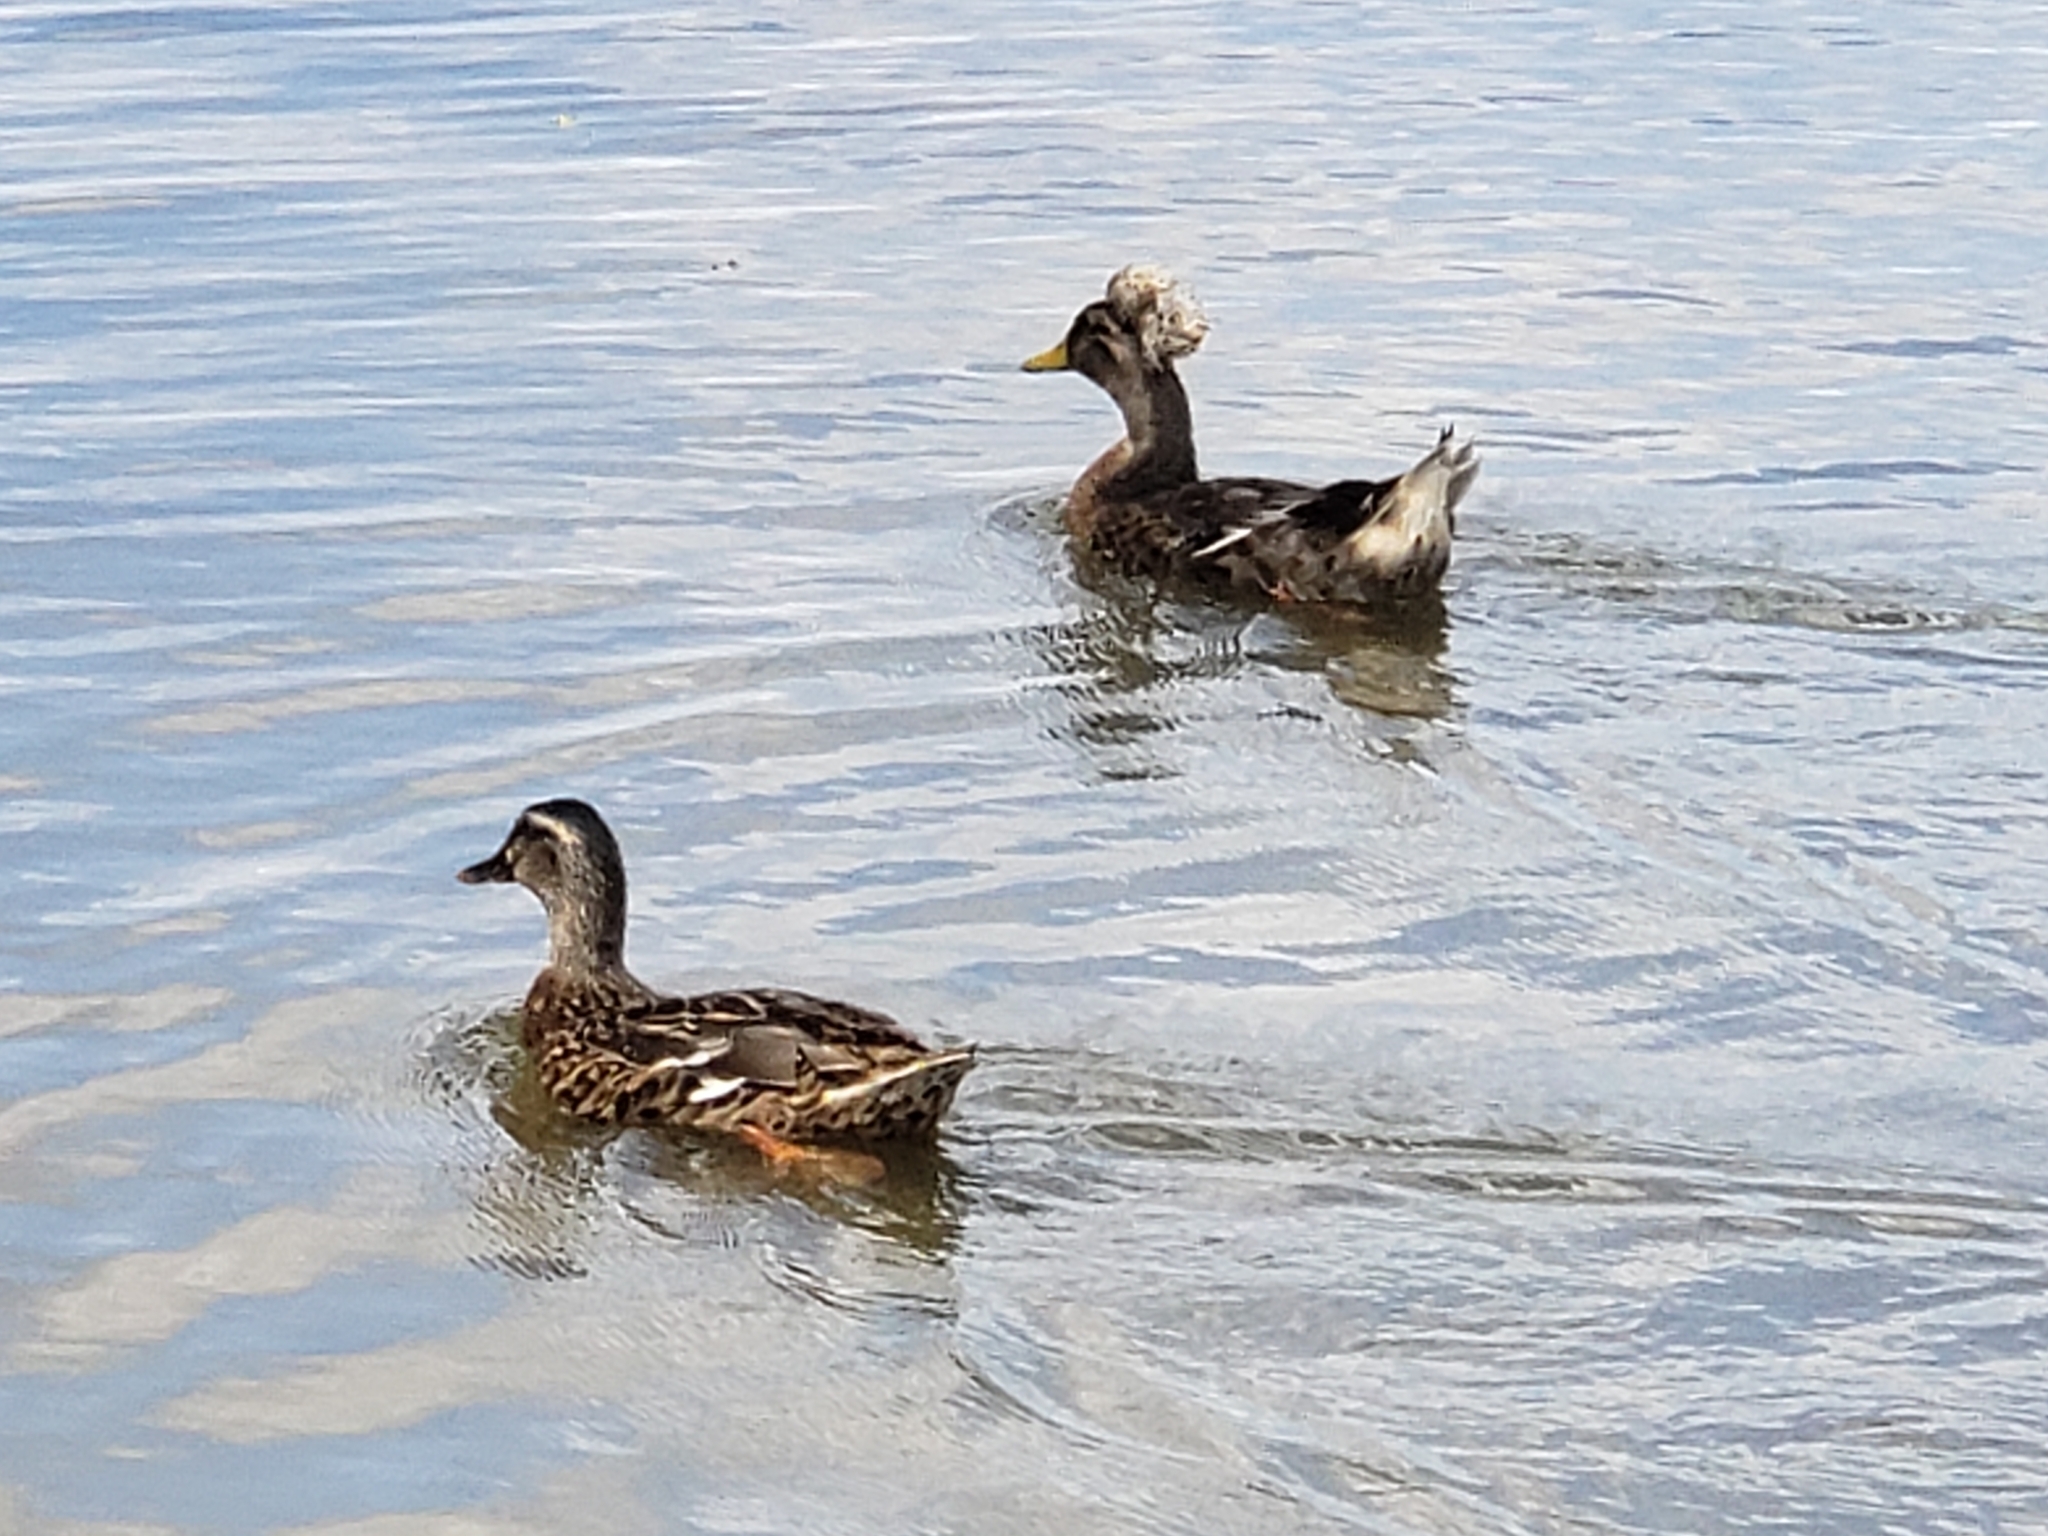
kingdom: Animalia
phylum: Chordata
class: Aves
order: Anseriformes
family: Anatidae
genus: Anas
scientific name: Anas platyrhynchos
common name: Mallard
